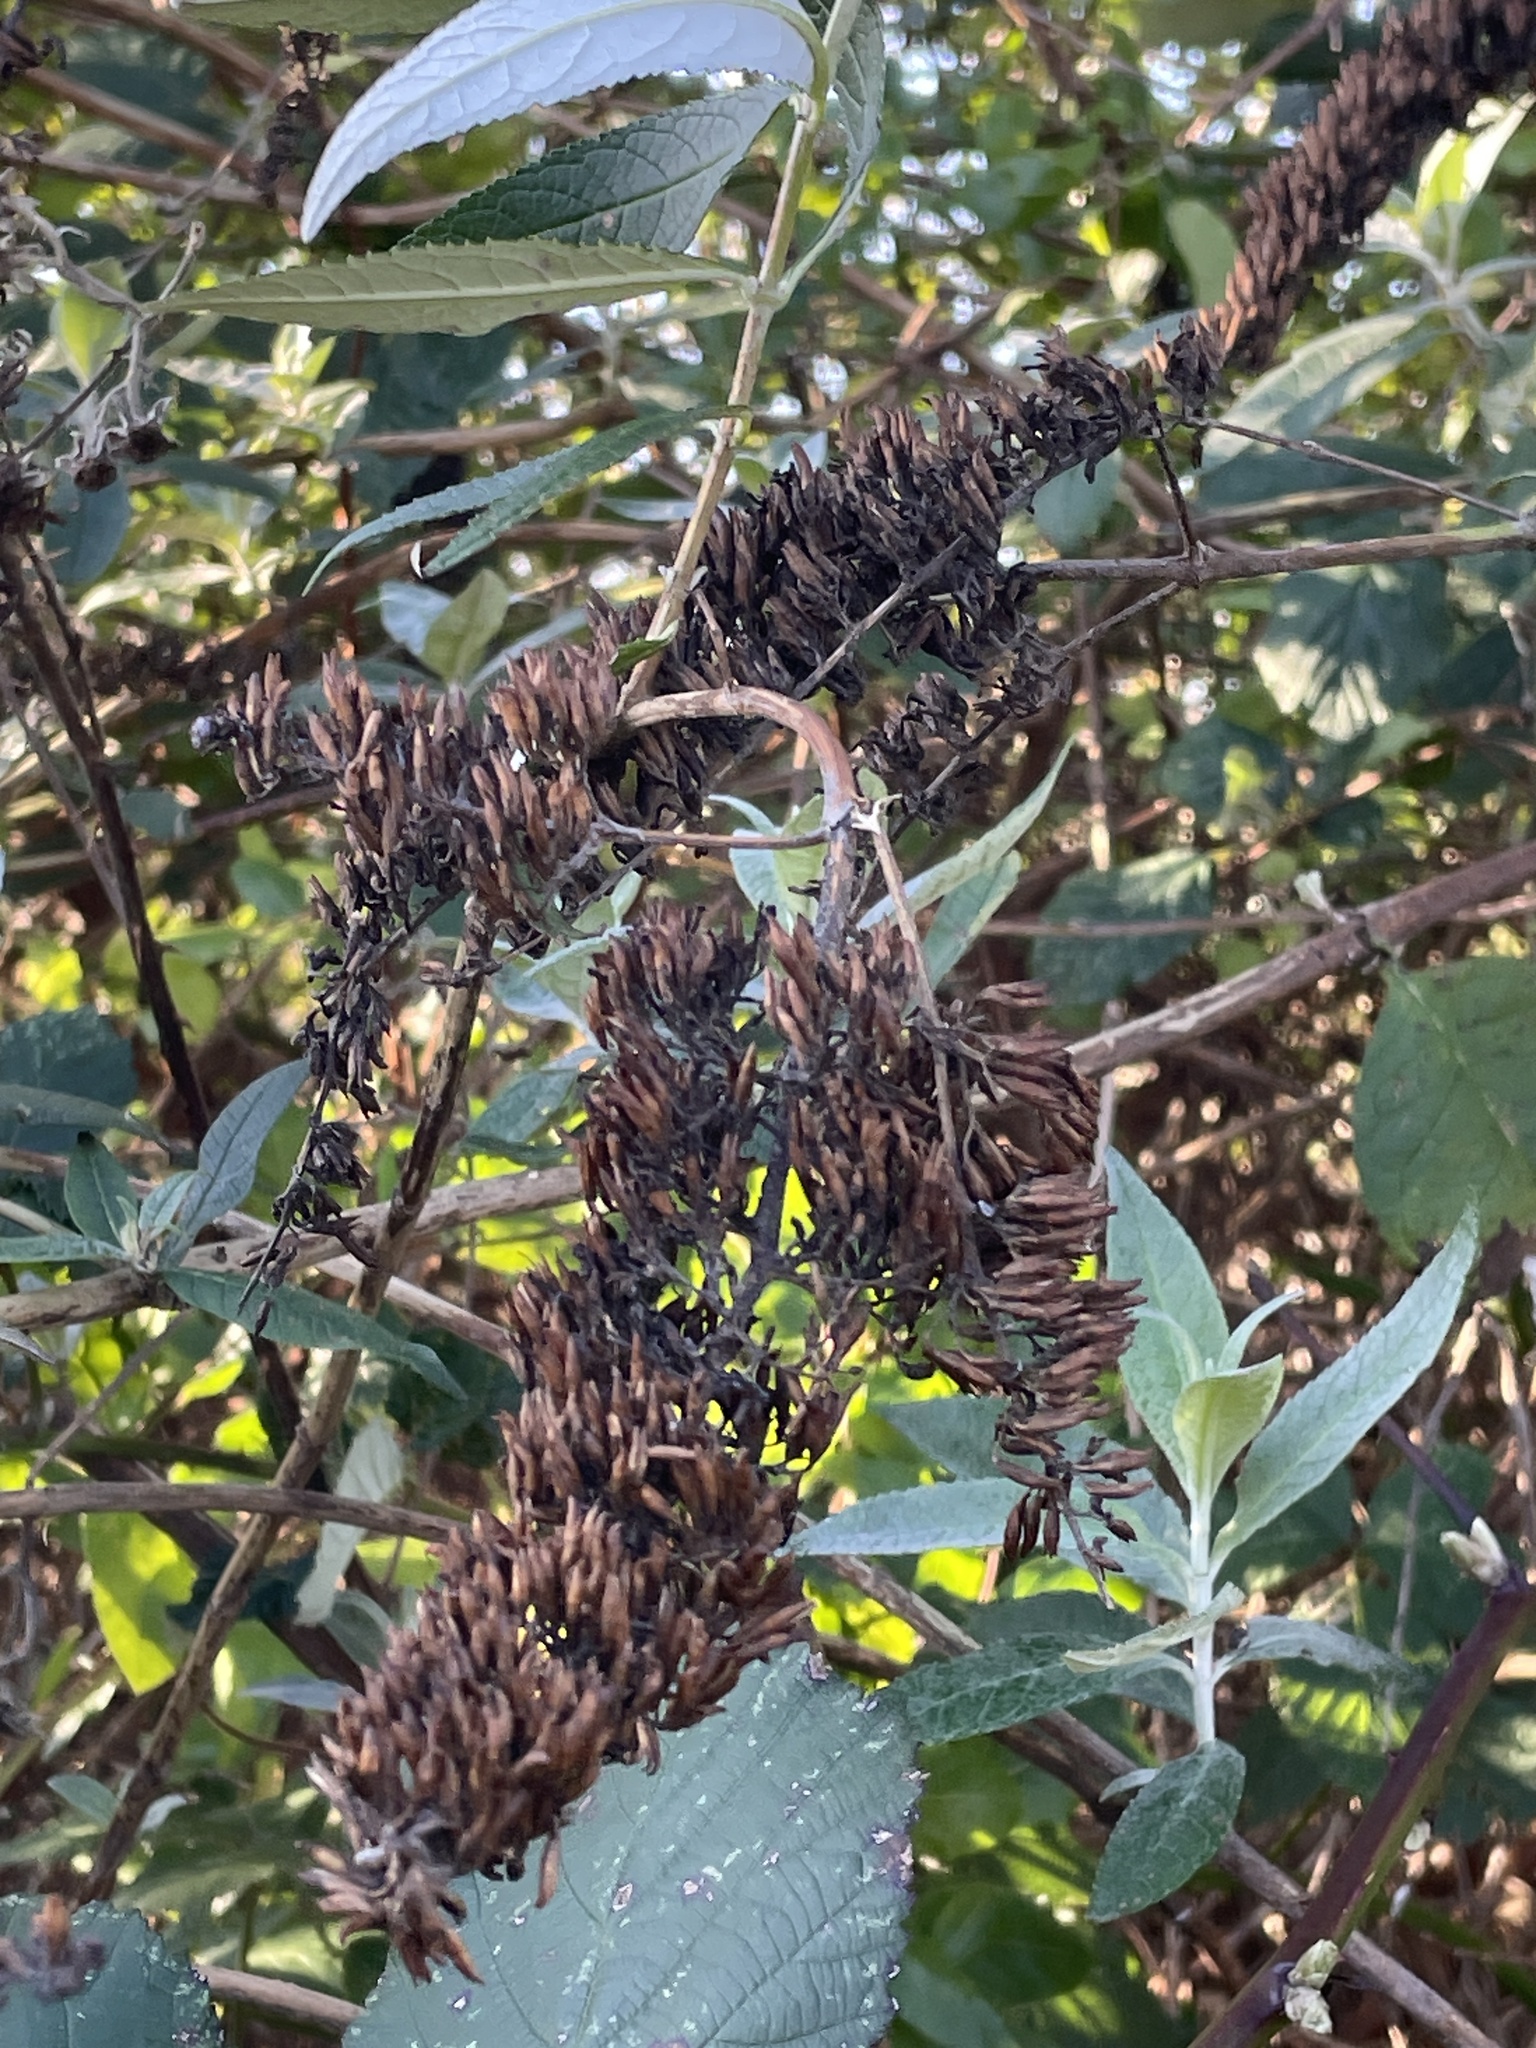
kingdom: Plantae
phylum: Tracheophyta
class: Magnoliopsida
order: Lamiales
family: Scrophulariaceae
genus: Buddleja
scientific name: Buddleja davidii
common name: Butterfly-bush
